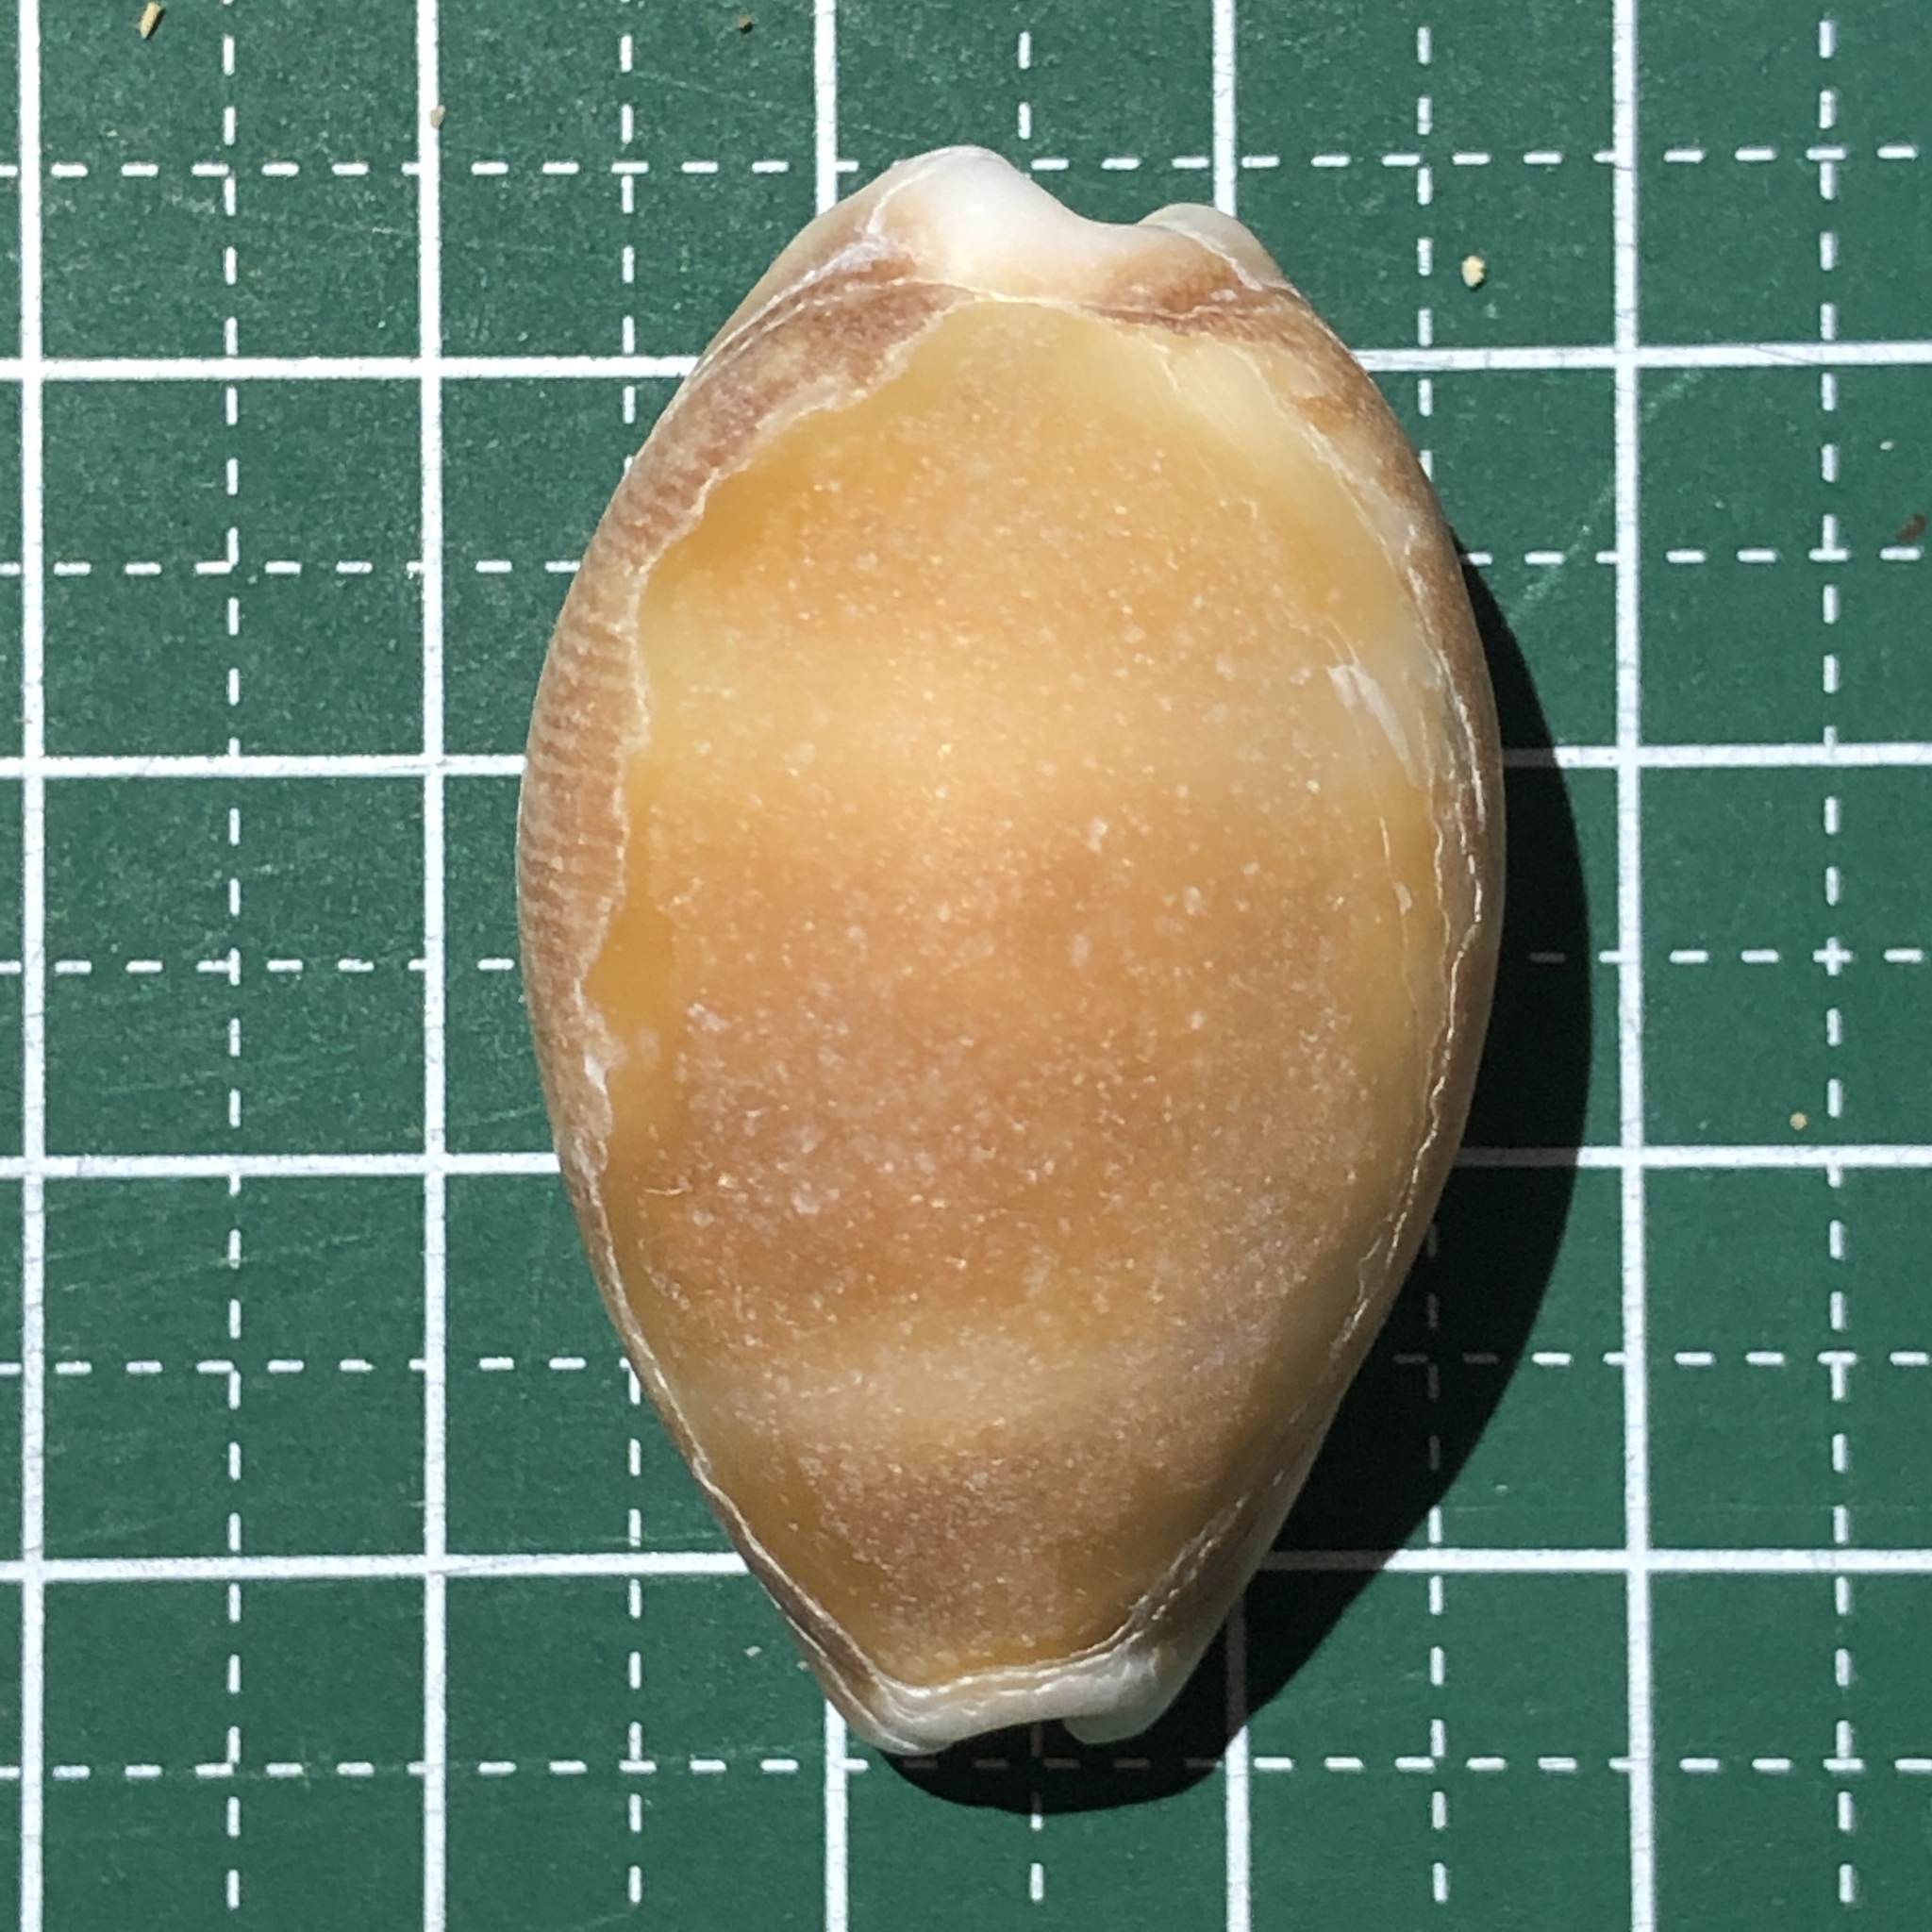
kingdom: Animalia
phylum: Mollusca
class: Gastropoda
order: Littorinimorpha
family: Cypraeidae
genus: Lyncina
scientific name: Lyncina vitellus
